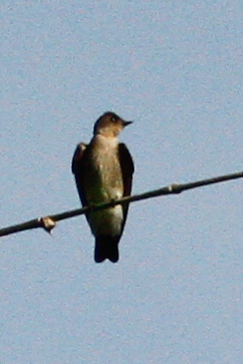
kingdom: Animalia
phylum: Chordata
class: Aves
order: Passeriformes
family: Hirundinidae
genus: Stelgidopteryx
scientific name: Stelgidopteryx ruficollis
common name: Southern rough-winged swallow
